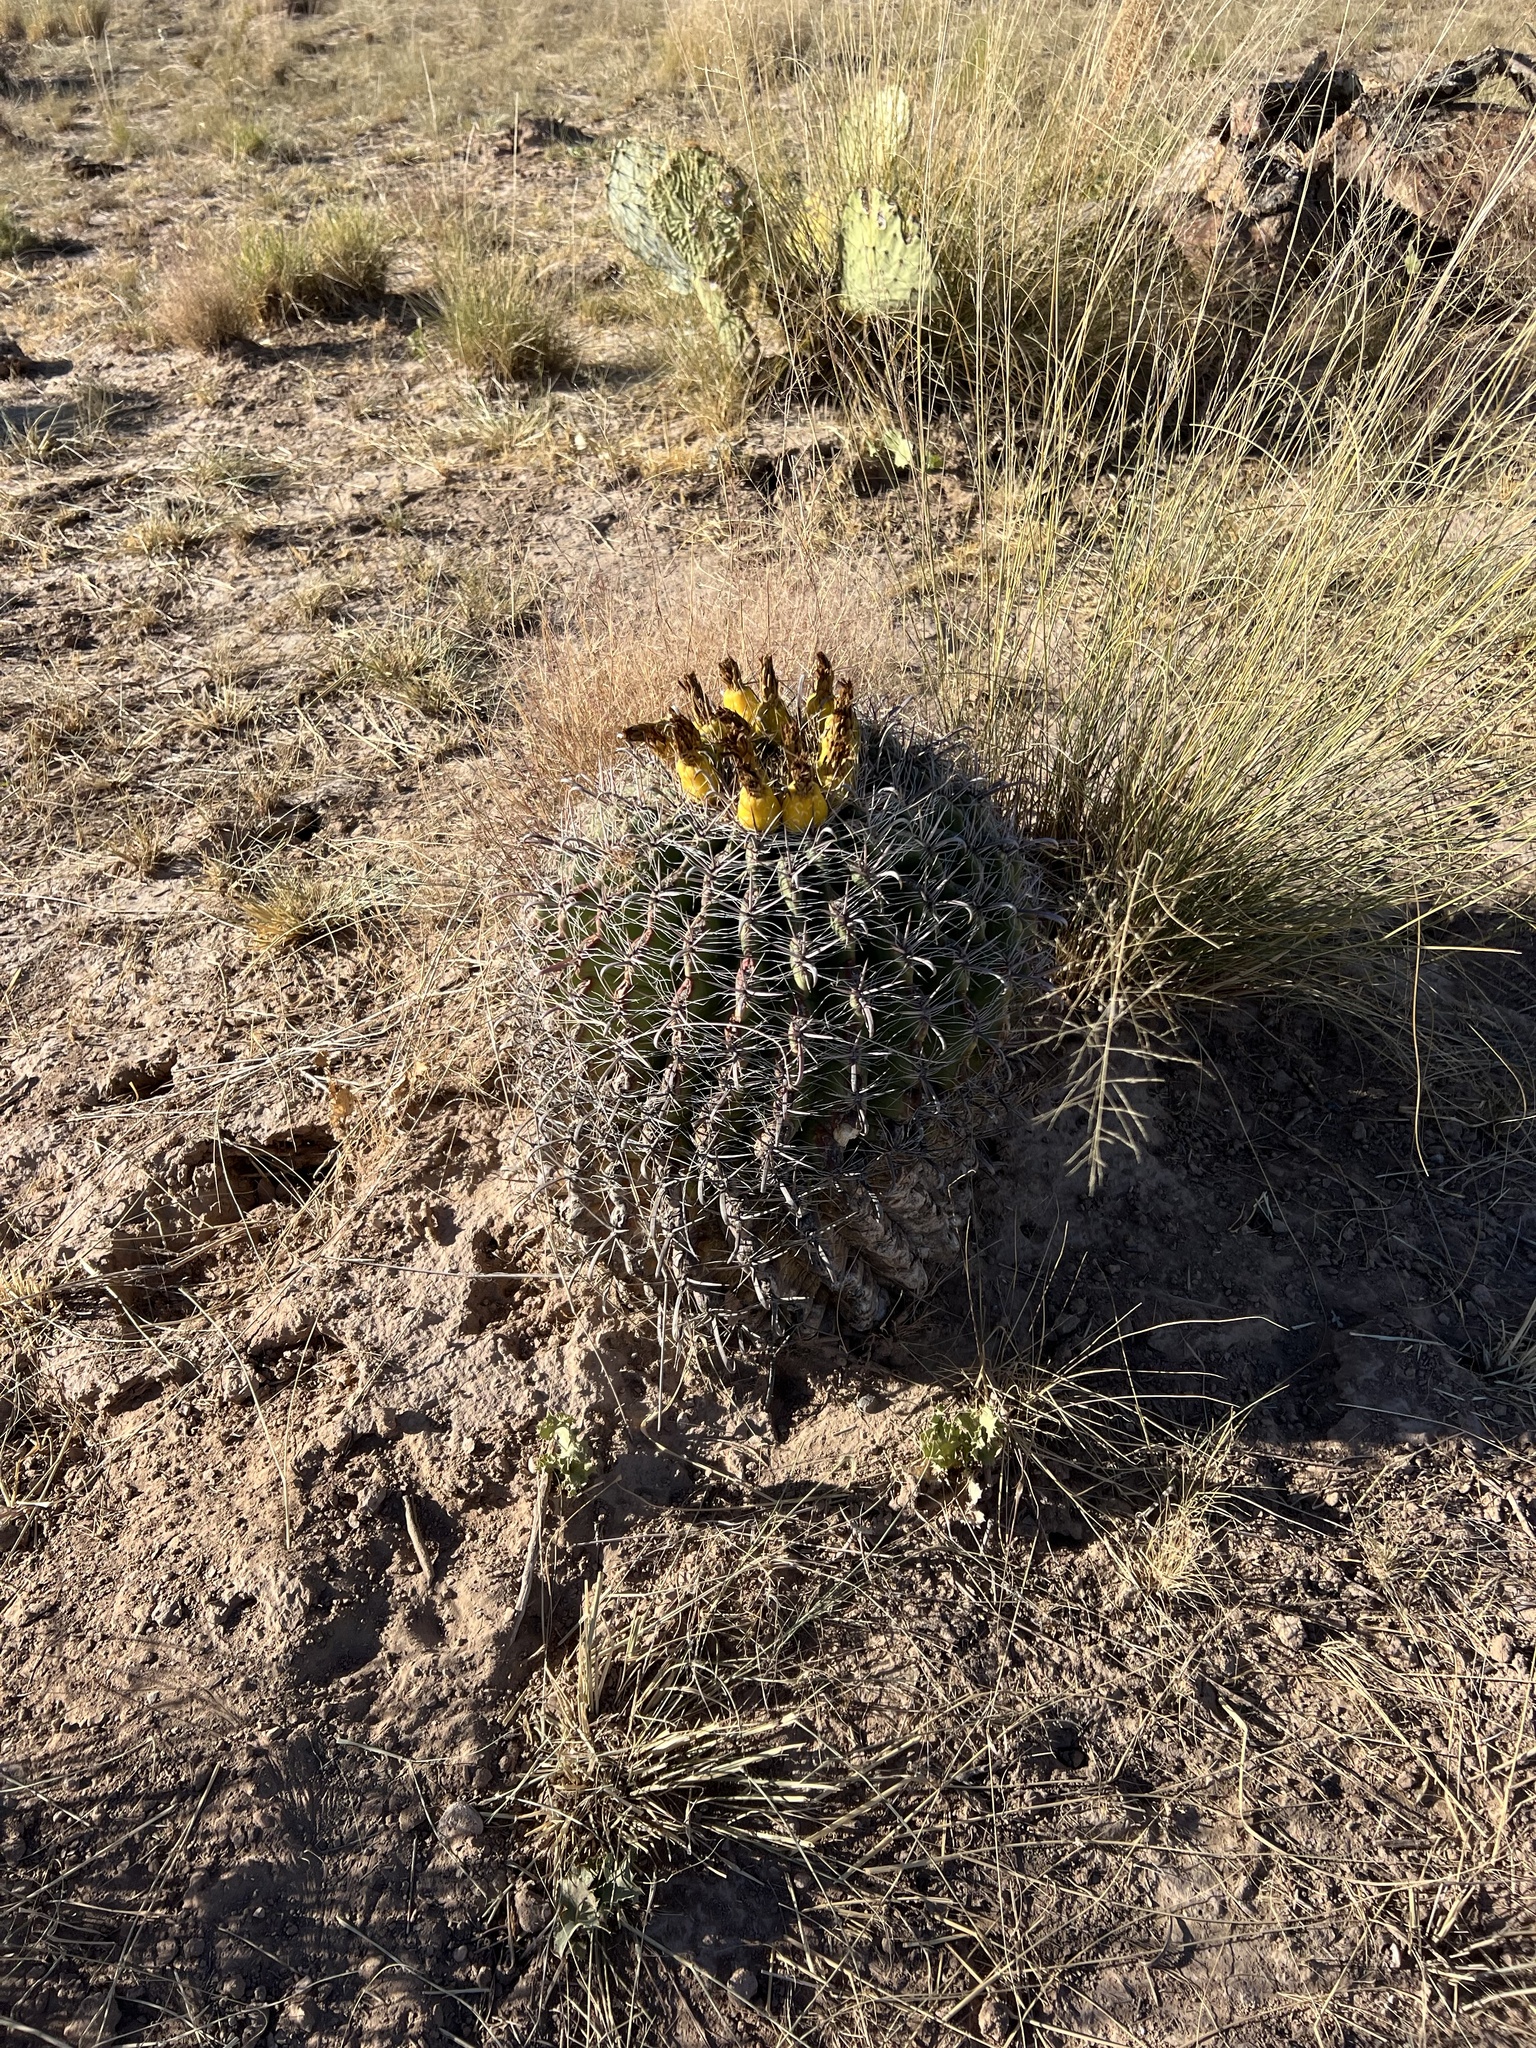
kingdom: Plantae
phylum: Tracheophyta
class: Magnoliopsida
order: Caryophyllales
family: Cactaceae
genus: Ferocactus
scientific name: Ferocactus wislizeni
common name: Candy barrel cactus
